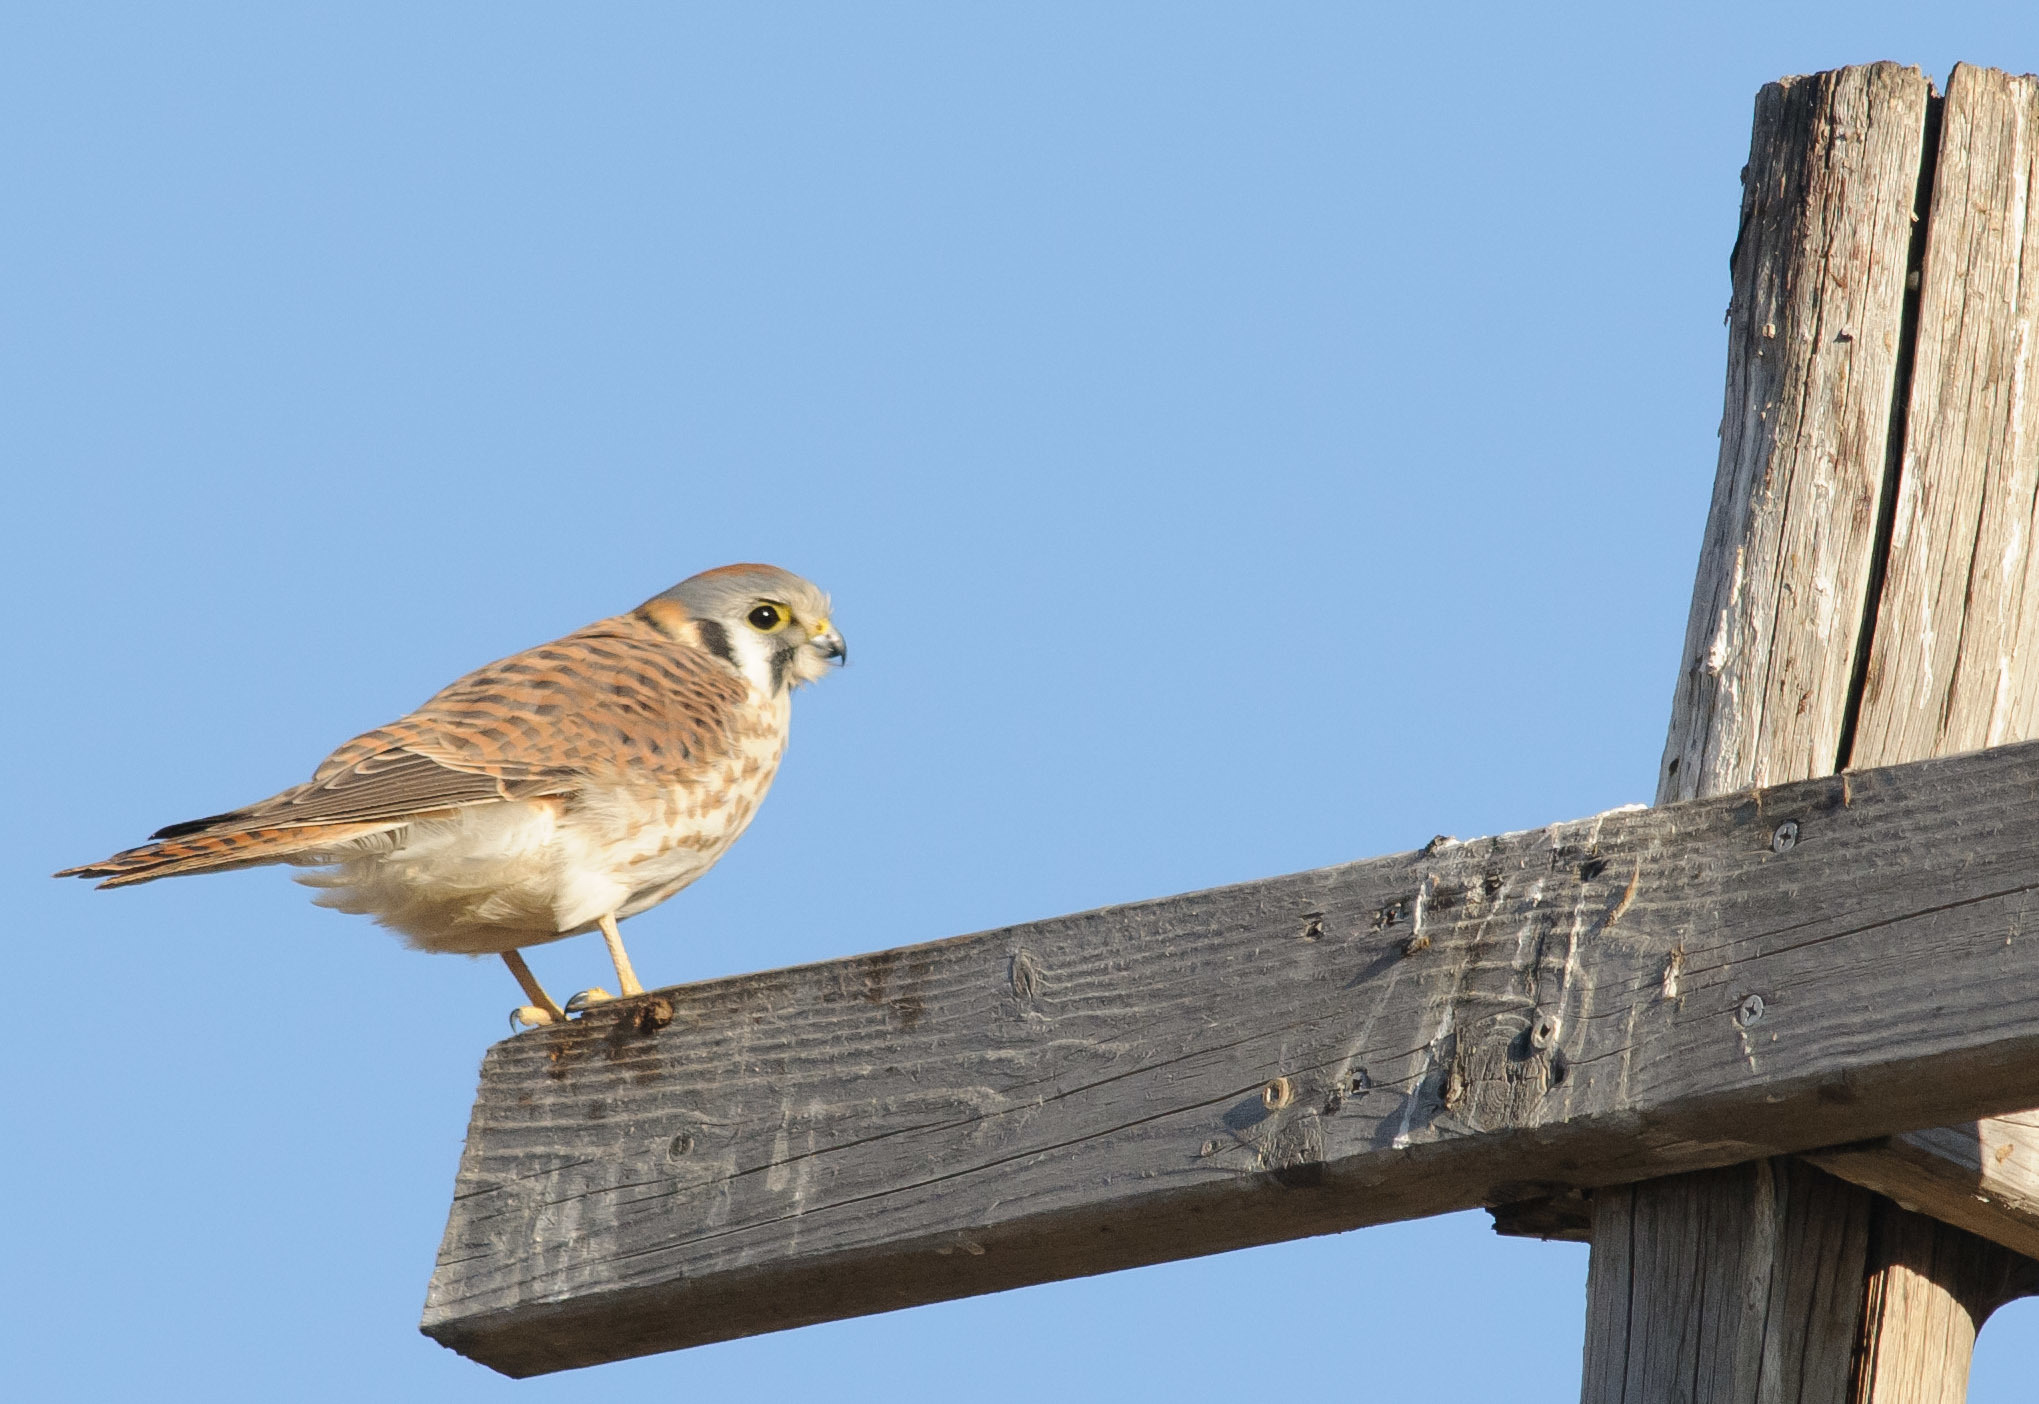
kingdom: Animalia
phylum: Chordata
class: Aves
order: Falconiformes
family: Falconidae
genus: Falco
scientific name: Falco sparverius
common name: American kestrel
